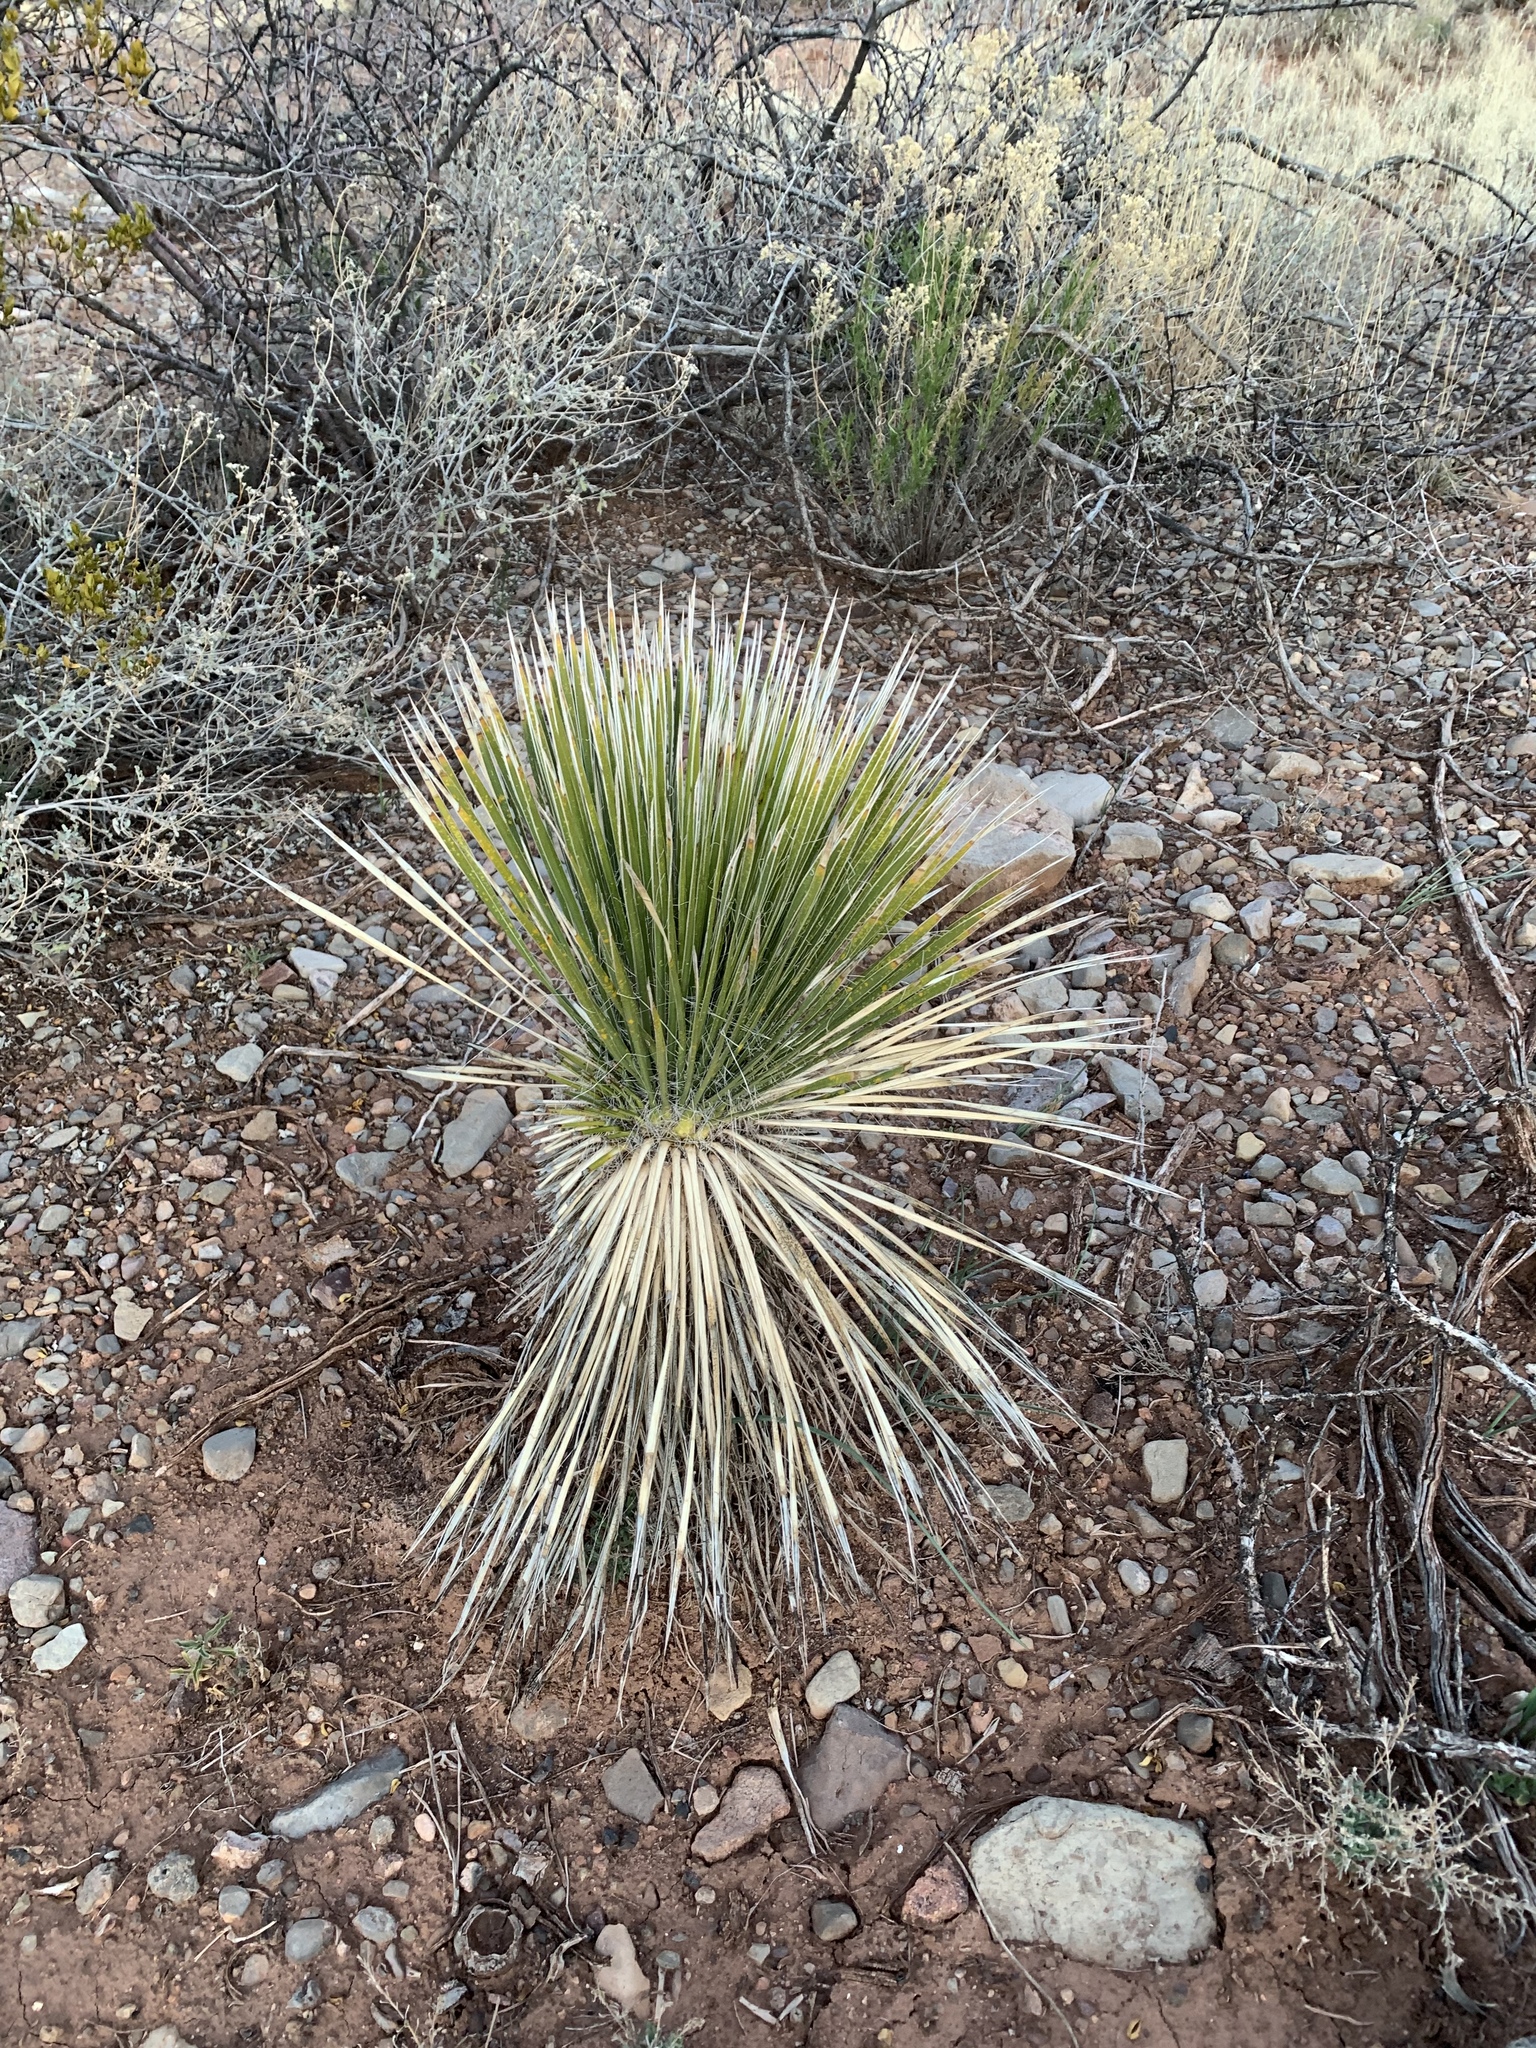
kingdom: Plantae
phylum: Tracheophyta
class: Liliopsida
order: Asparagales
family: Asparagaceae
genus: Yucca
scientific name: Yucca elata
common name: Palmella
